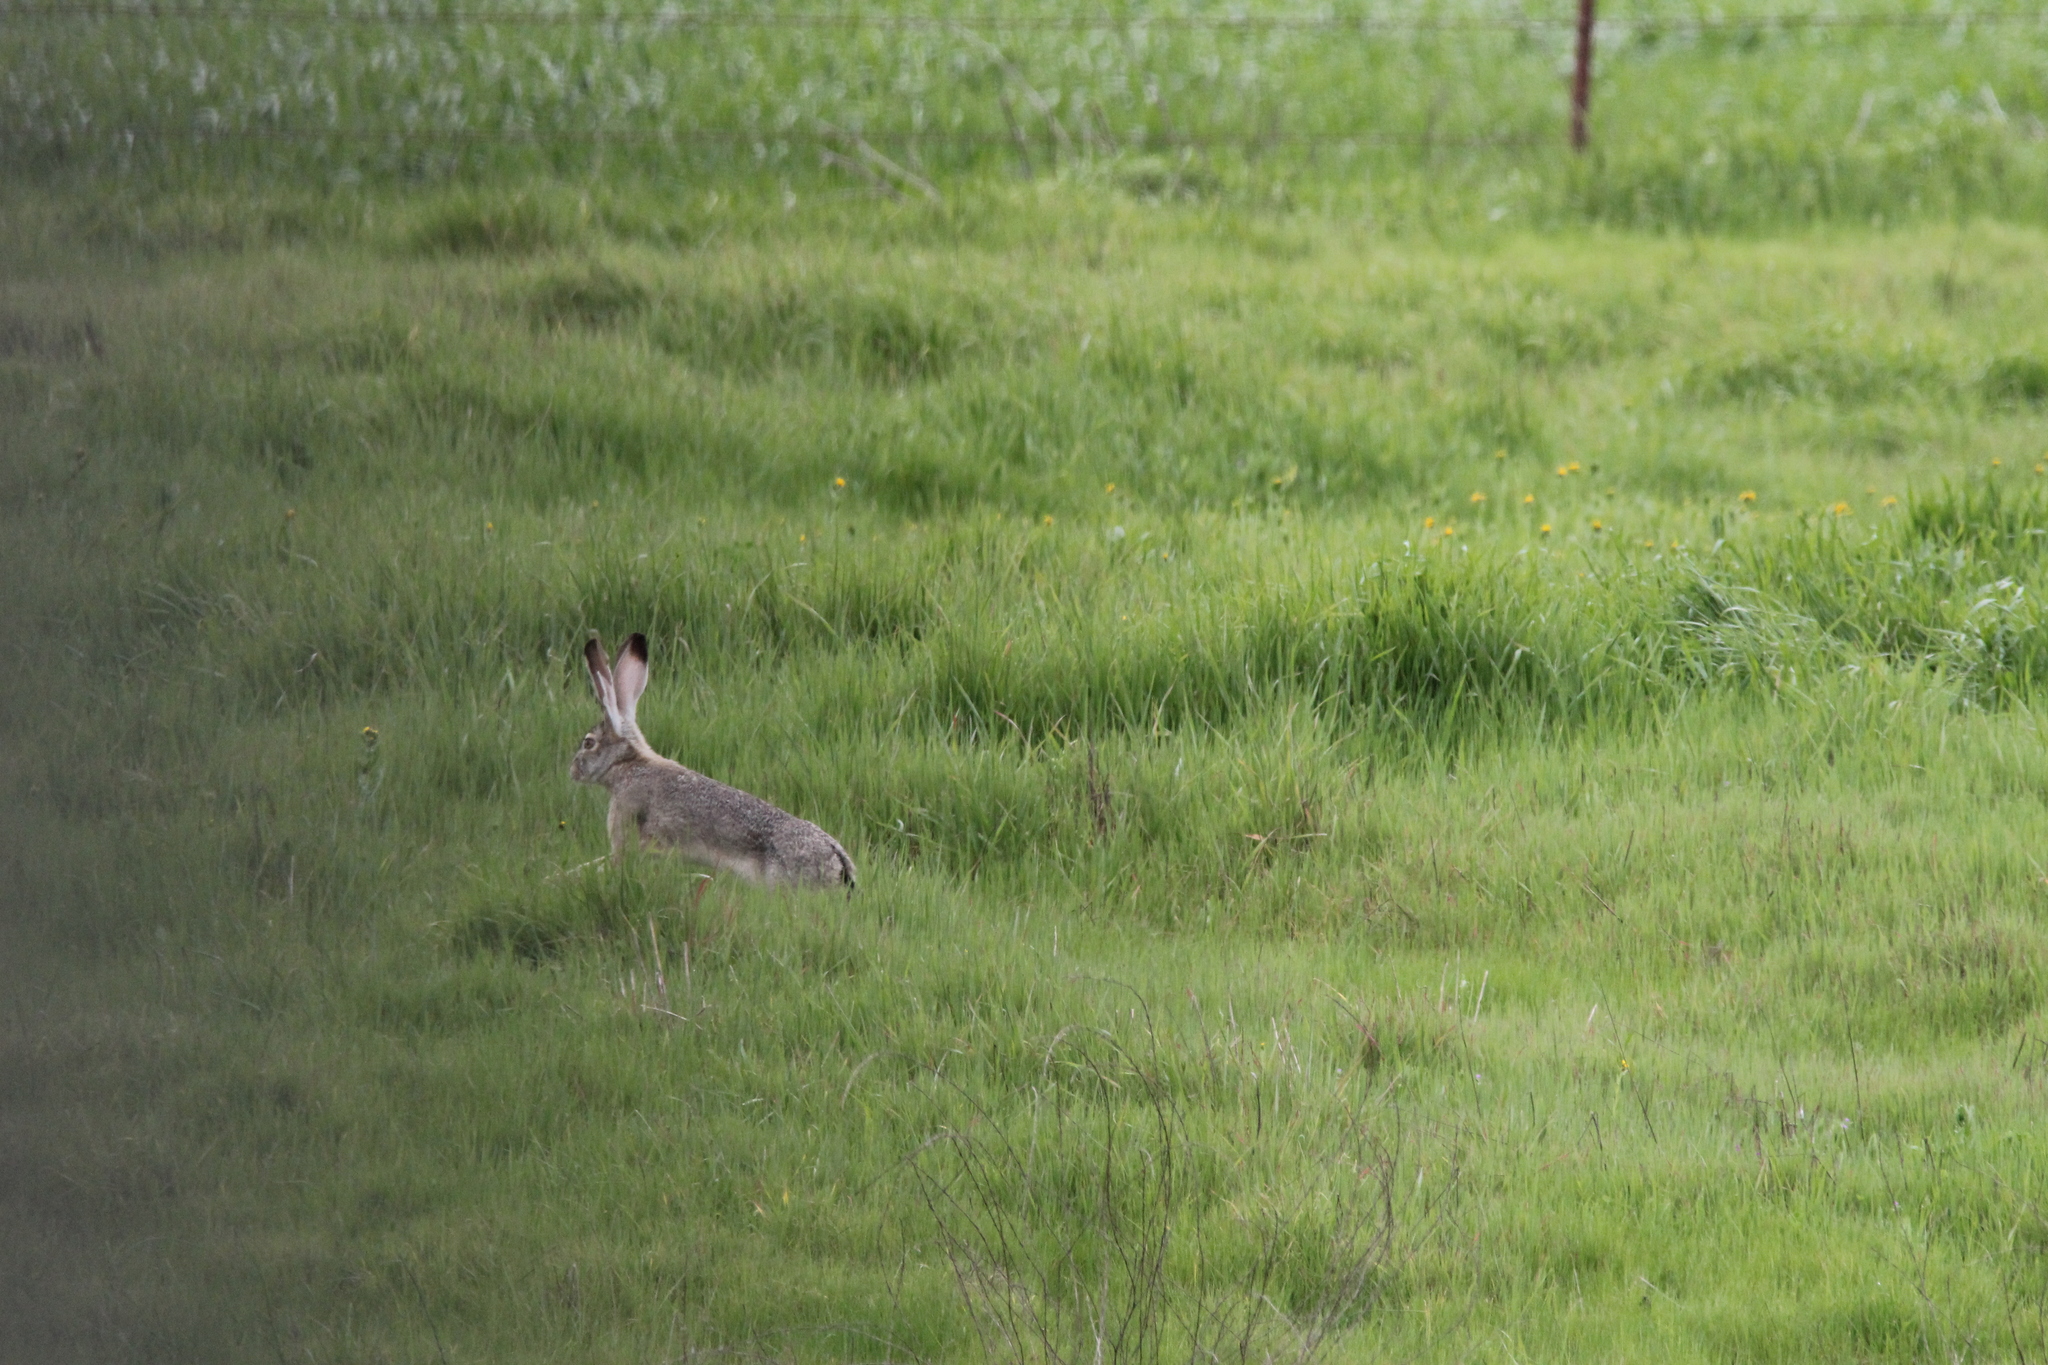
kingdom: Animalia
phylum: Chordata
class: Mammalia
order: Lagomorpha
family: Leporidae
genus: Lepus
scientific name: Lepus californicus
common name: Black-tailed jackrabbit
